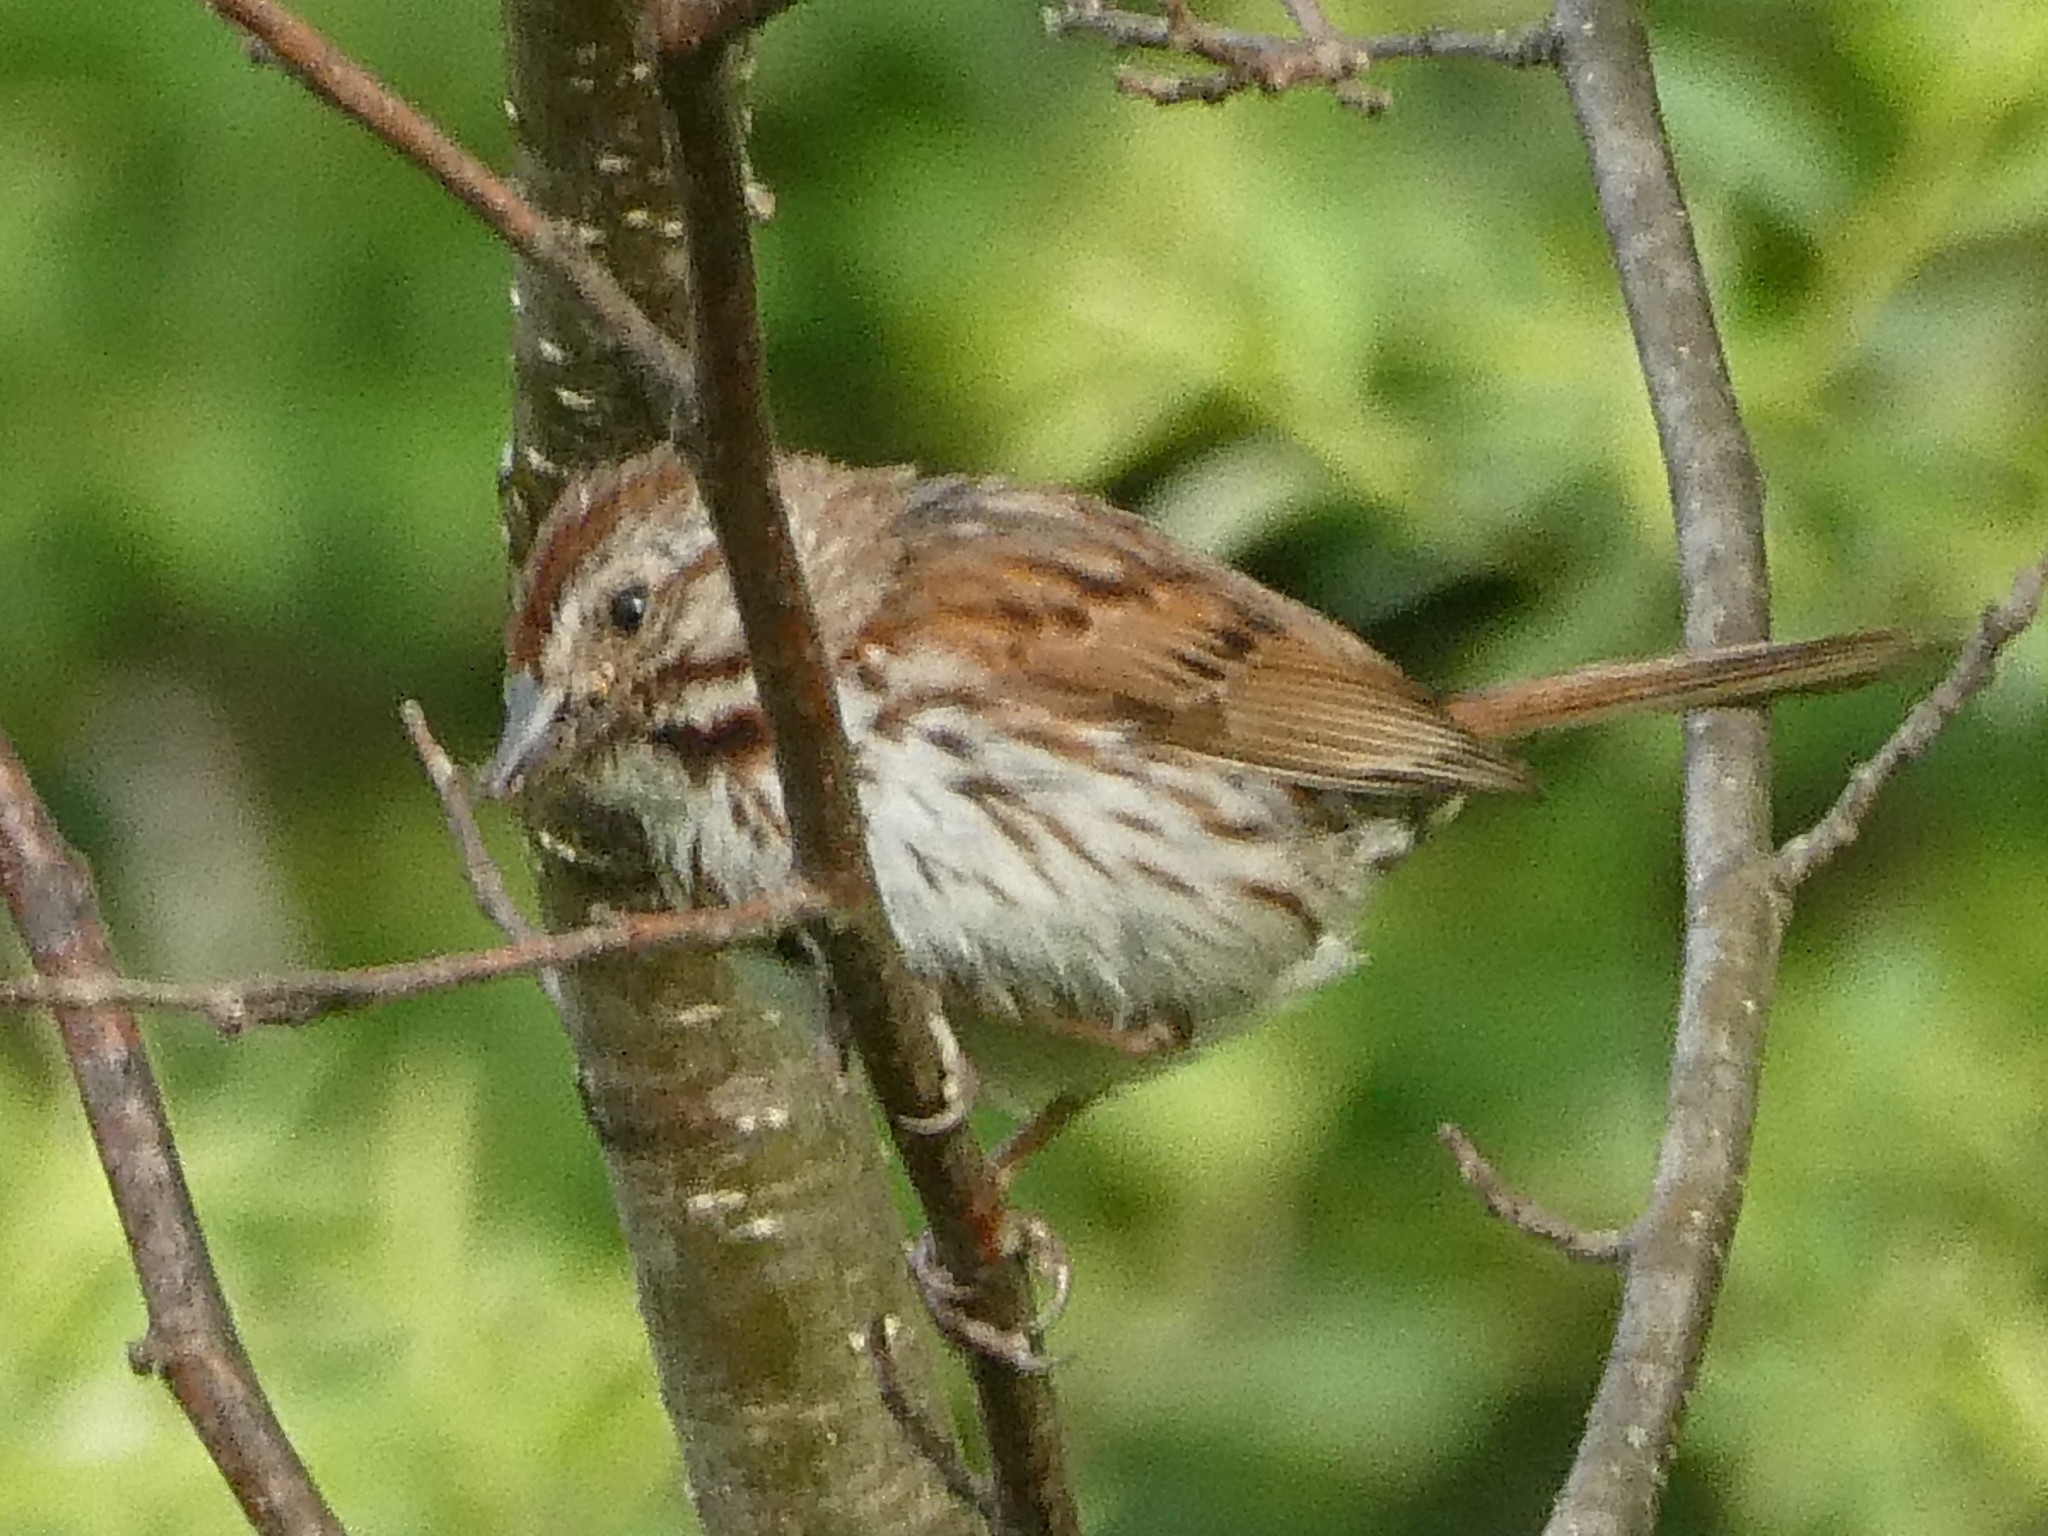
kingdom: Animalia
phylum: Chordata
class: Aves
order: Passeriformes
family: Passerellidae
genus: Melospiza
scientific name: Melospiza melodia
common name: Song sparrow
